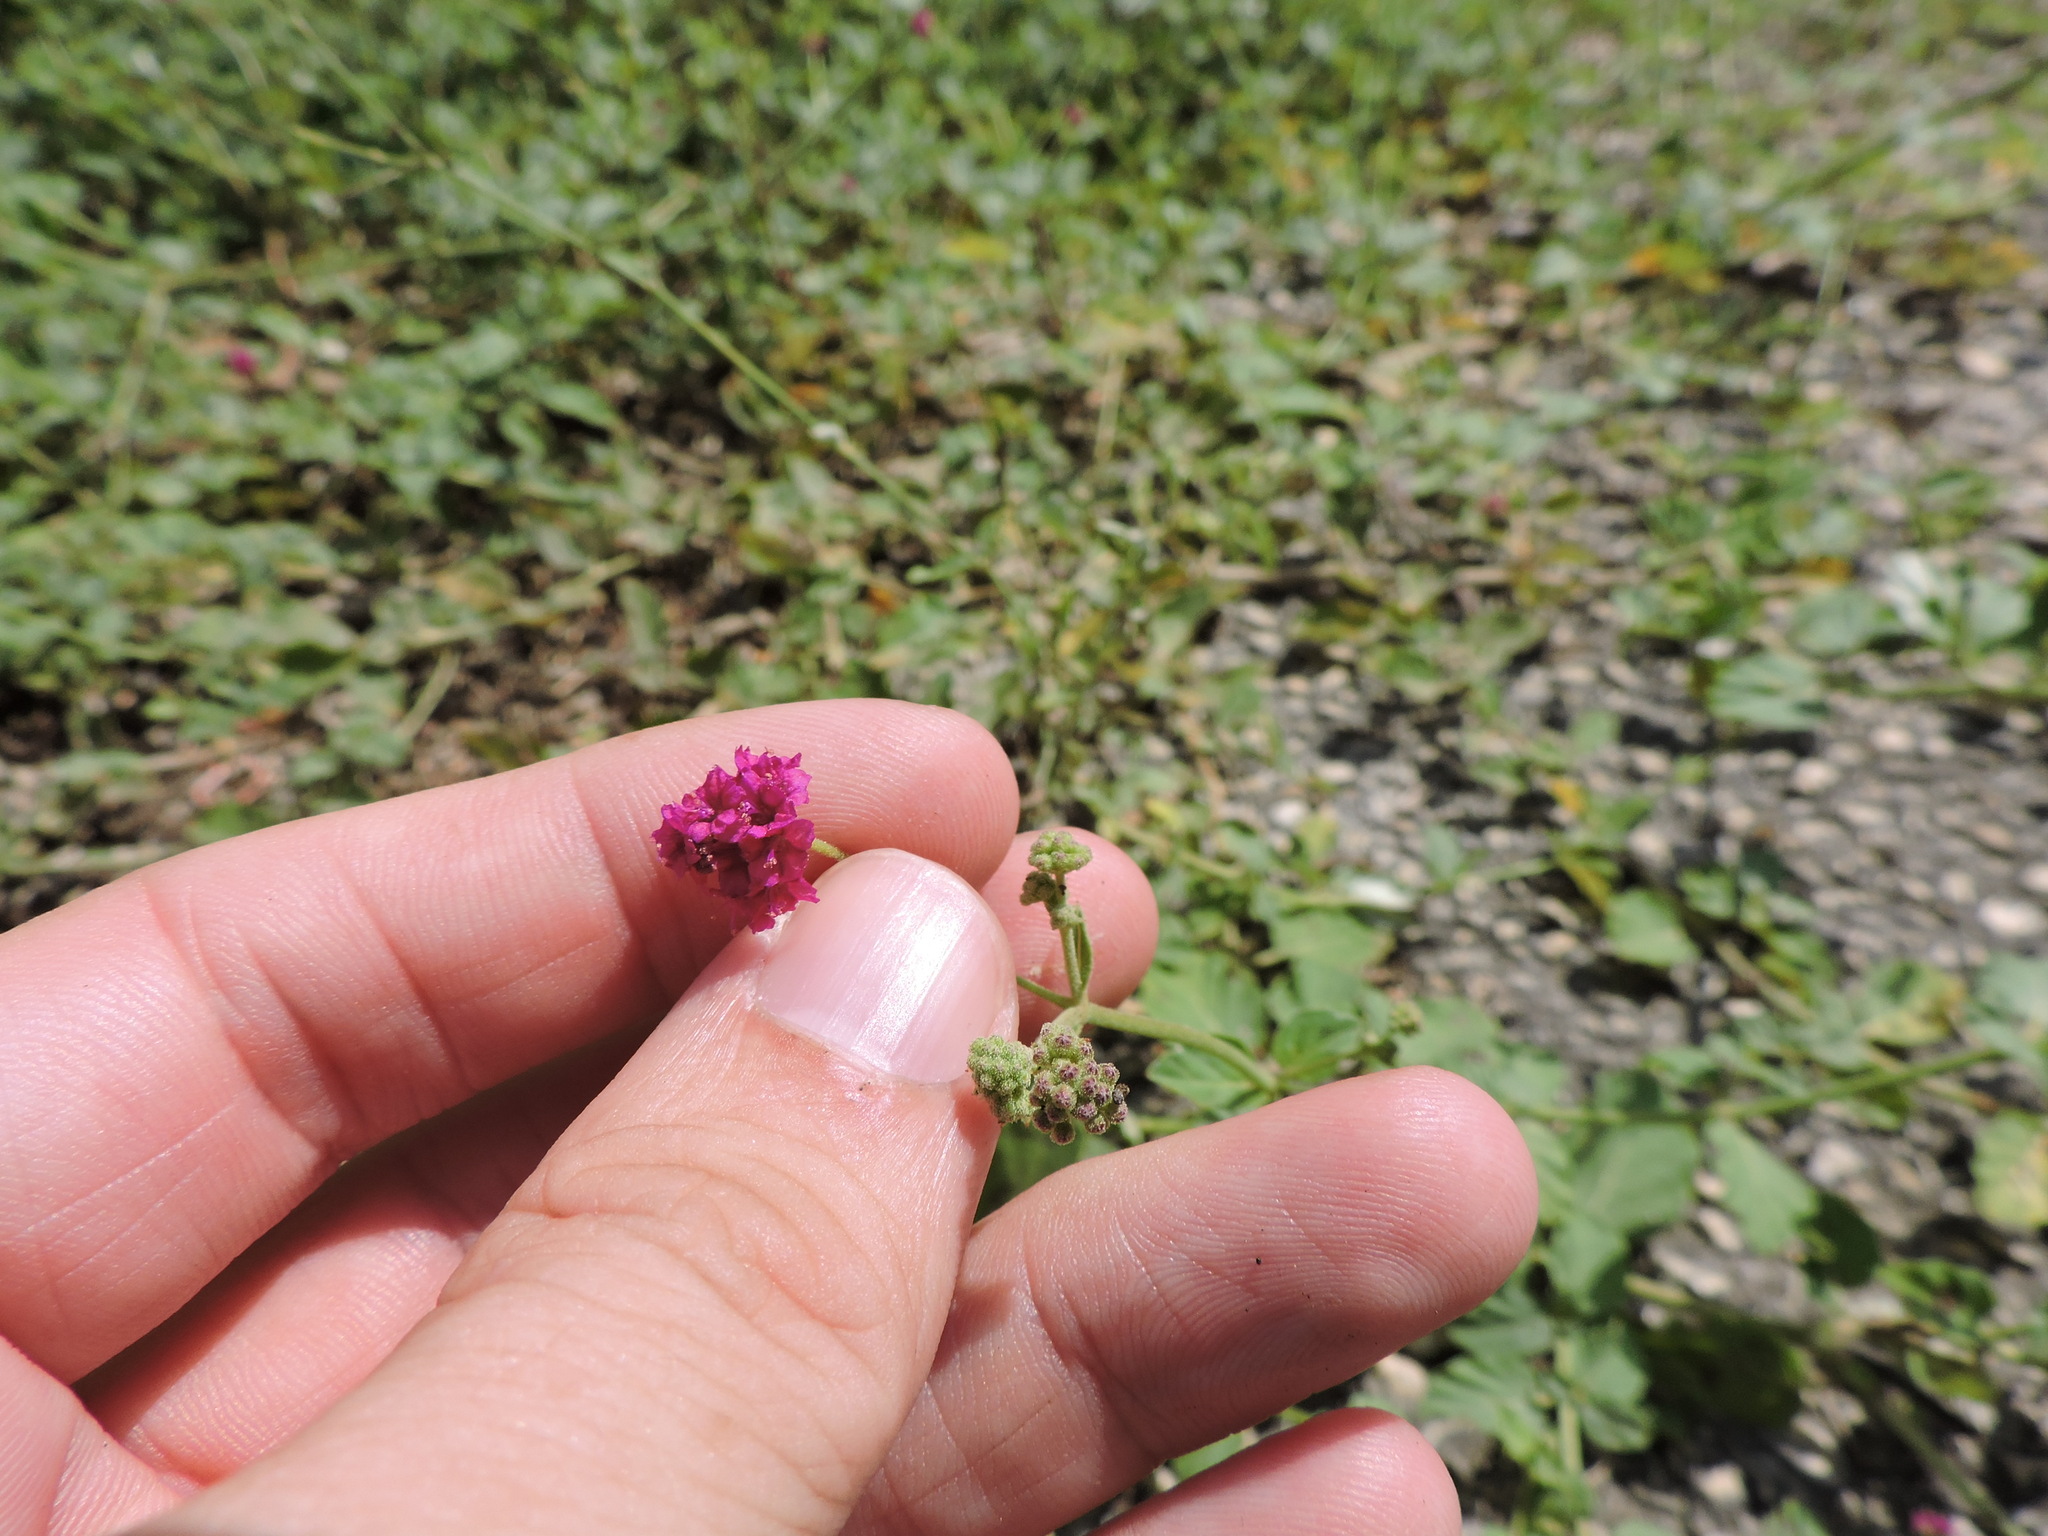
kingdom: Plantae
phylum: Tracheophyta
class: Magnoliopsida
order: Caryophyllales
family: Nyctaginaceae
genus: Boerhavia
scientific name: Boerhavia coccinea
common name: Scarlet spiderling
